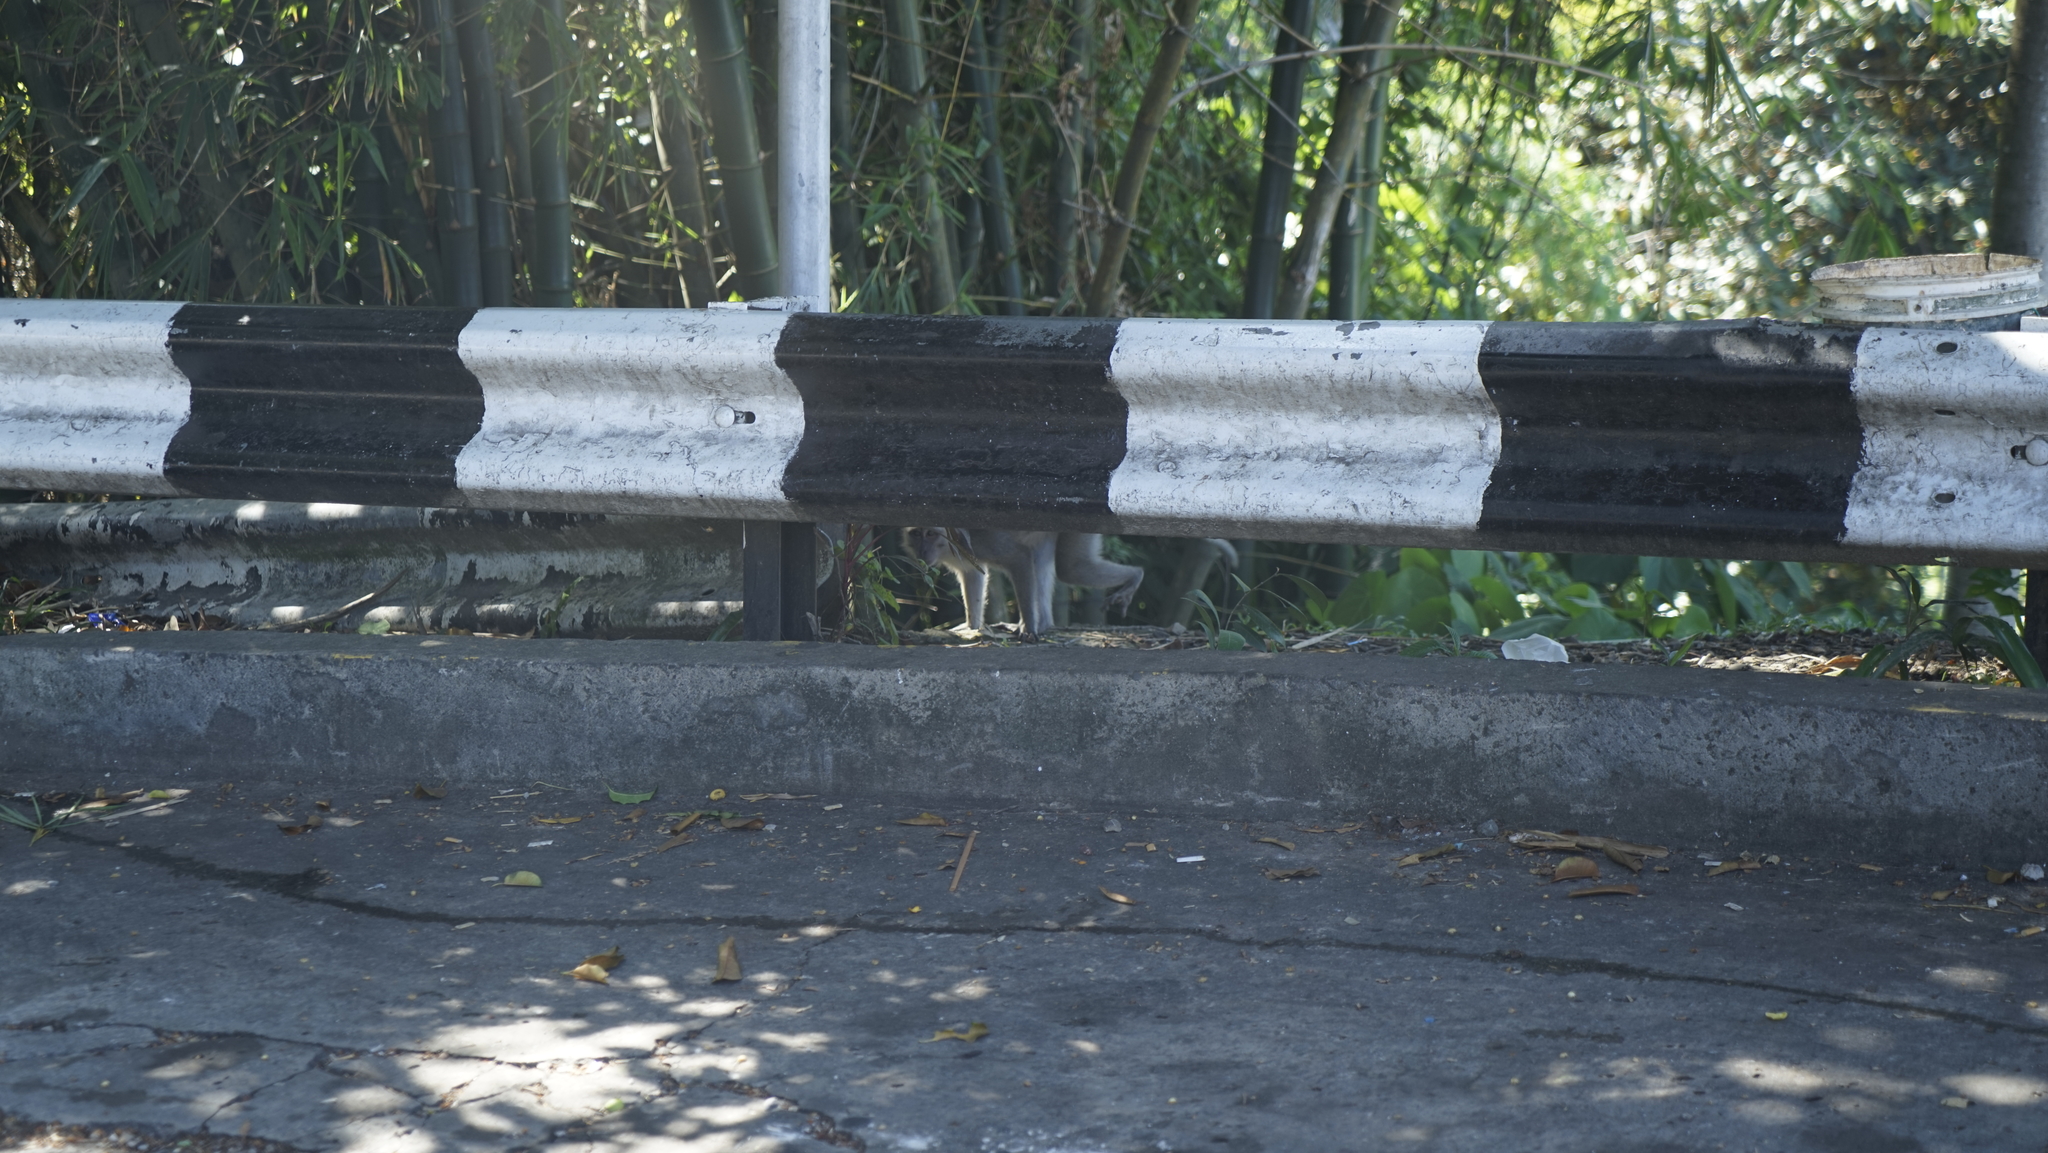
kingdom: Animalia
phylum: Chordata
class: Mammalia
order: Primates
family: Cercopithecidae
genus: Macaca
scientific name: Macaca fascicularis
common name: Crab-eating macaque
